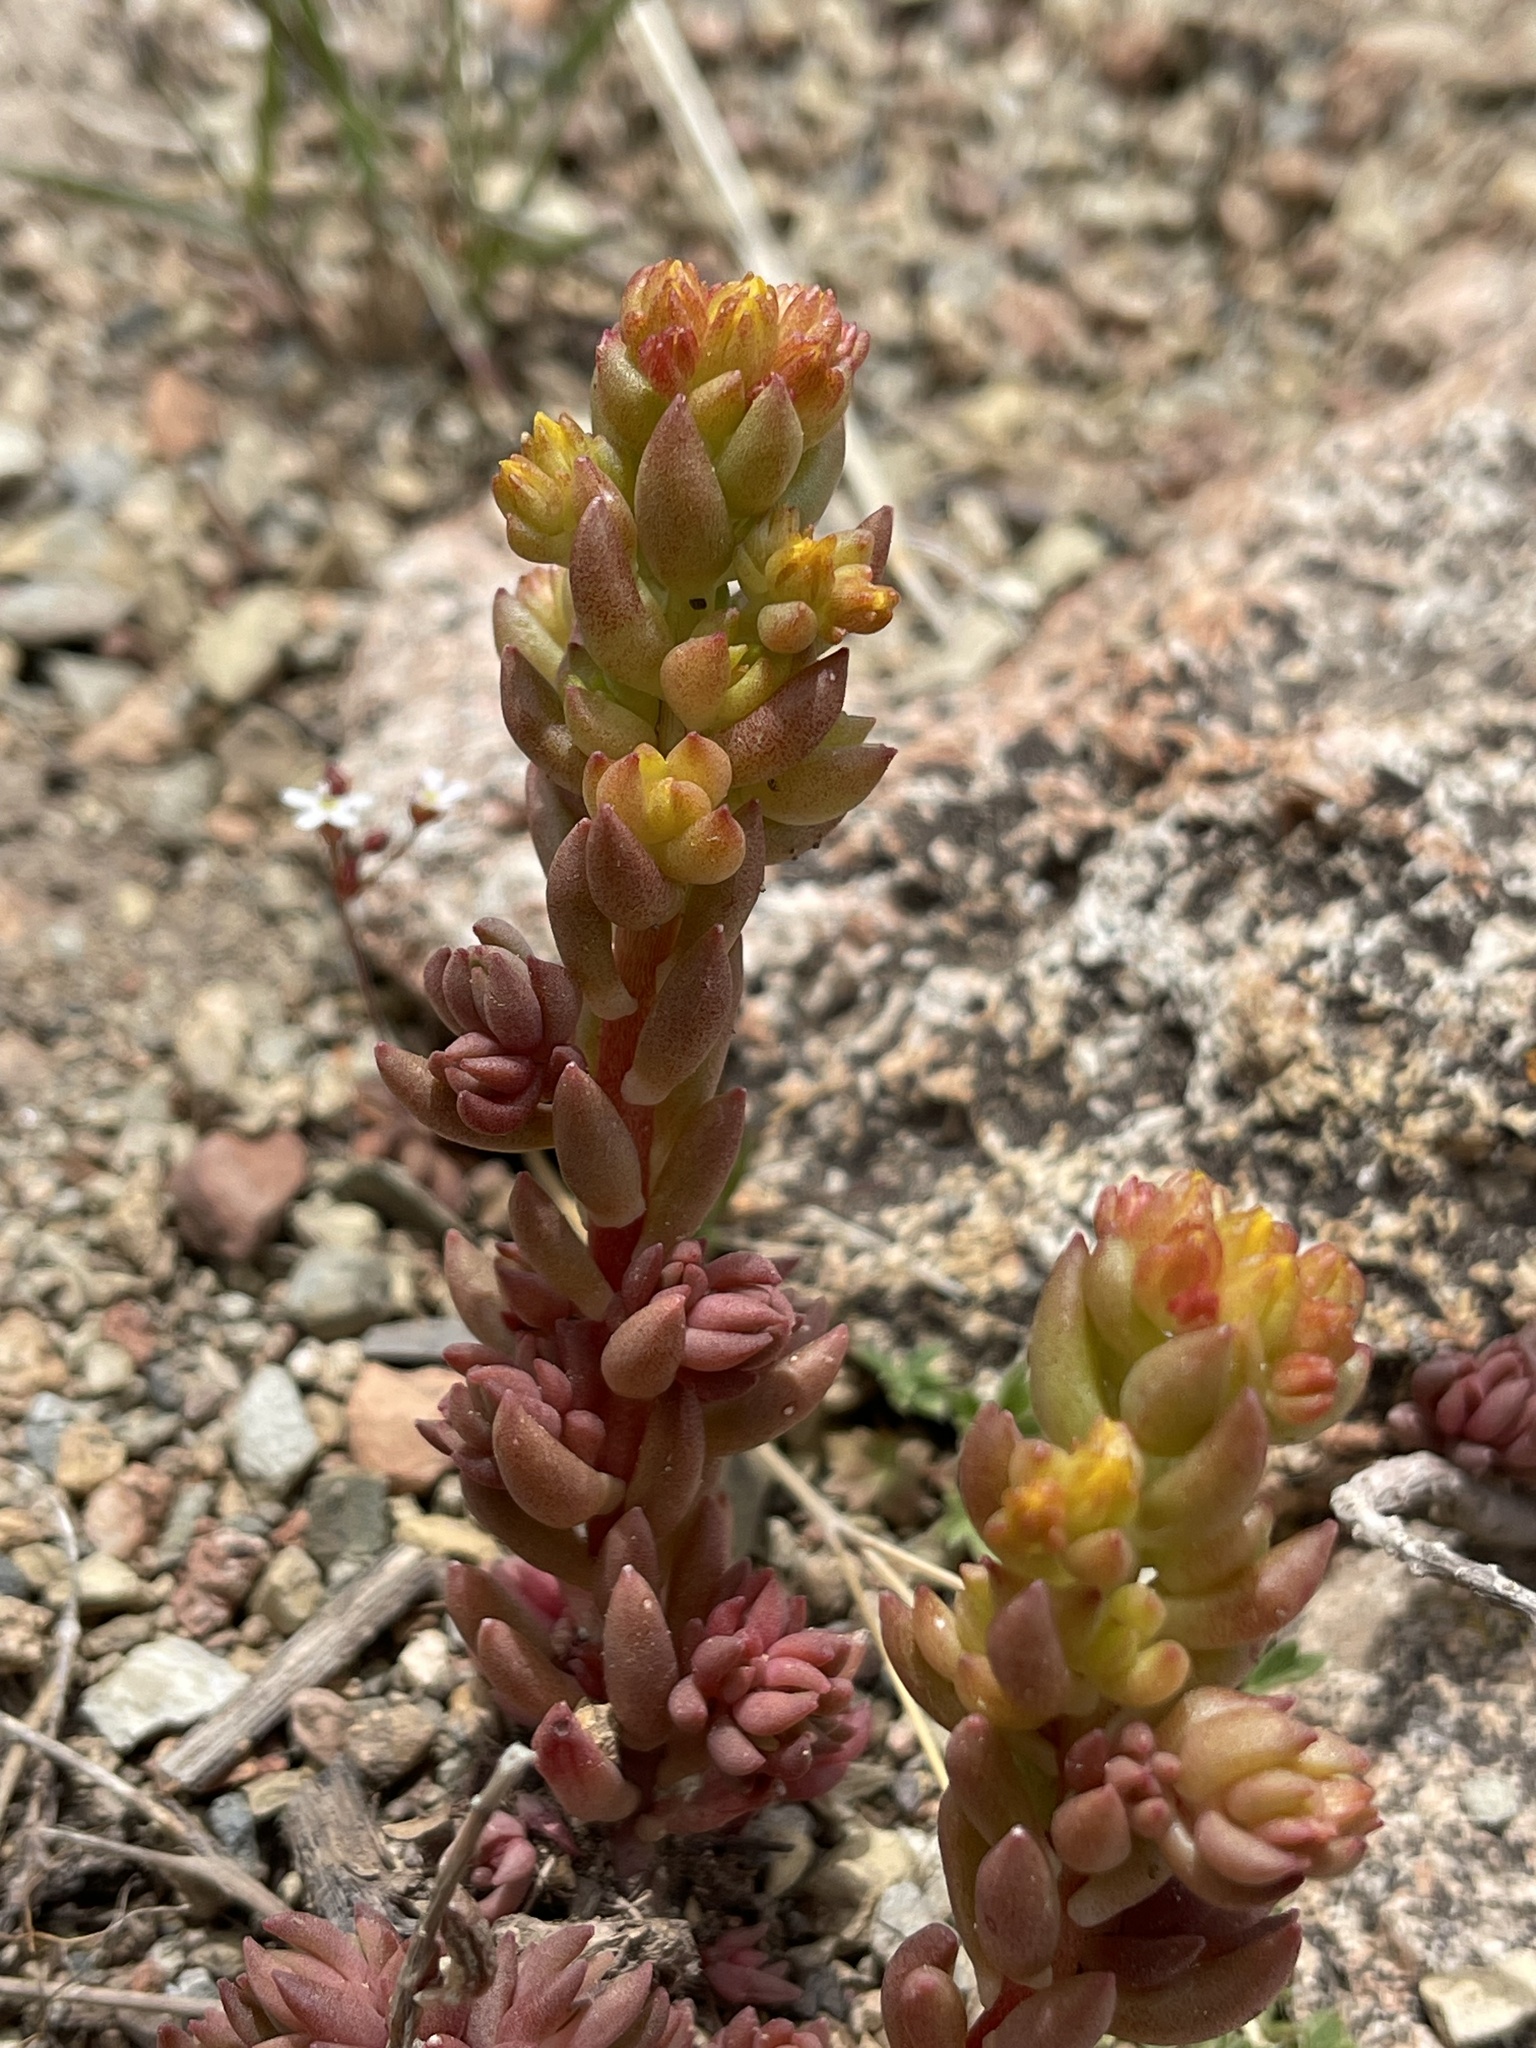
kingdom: Plantae
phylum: Tracheophyta
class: Magnoliopsida
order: Saxifragales
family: Crassulaceae
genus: Sedum
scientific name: Sedum lanceolatum
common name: Common stonecrop
